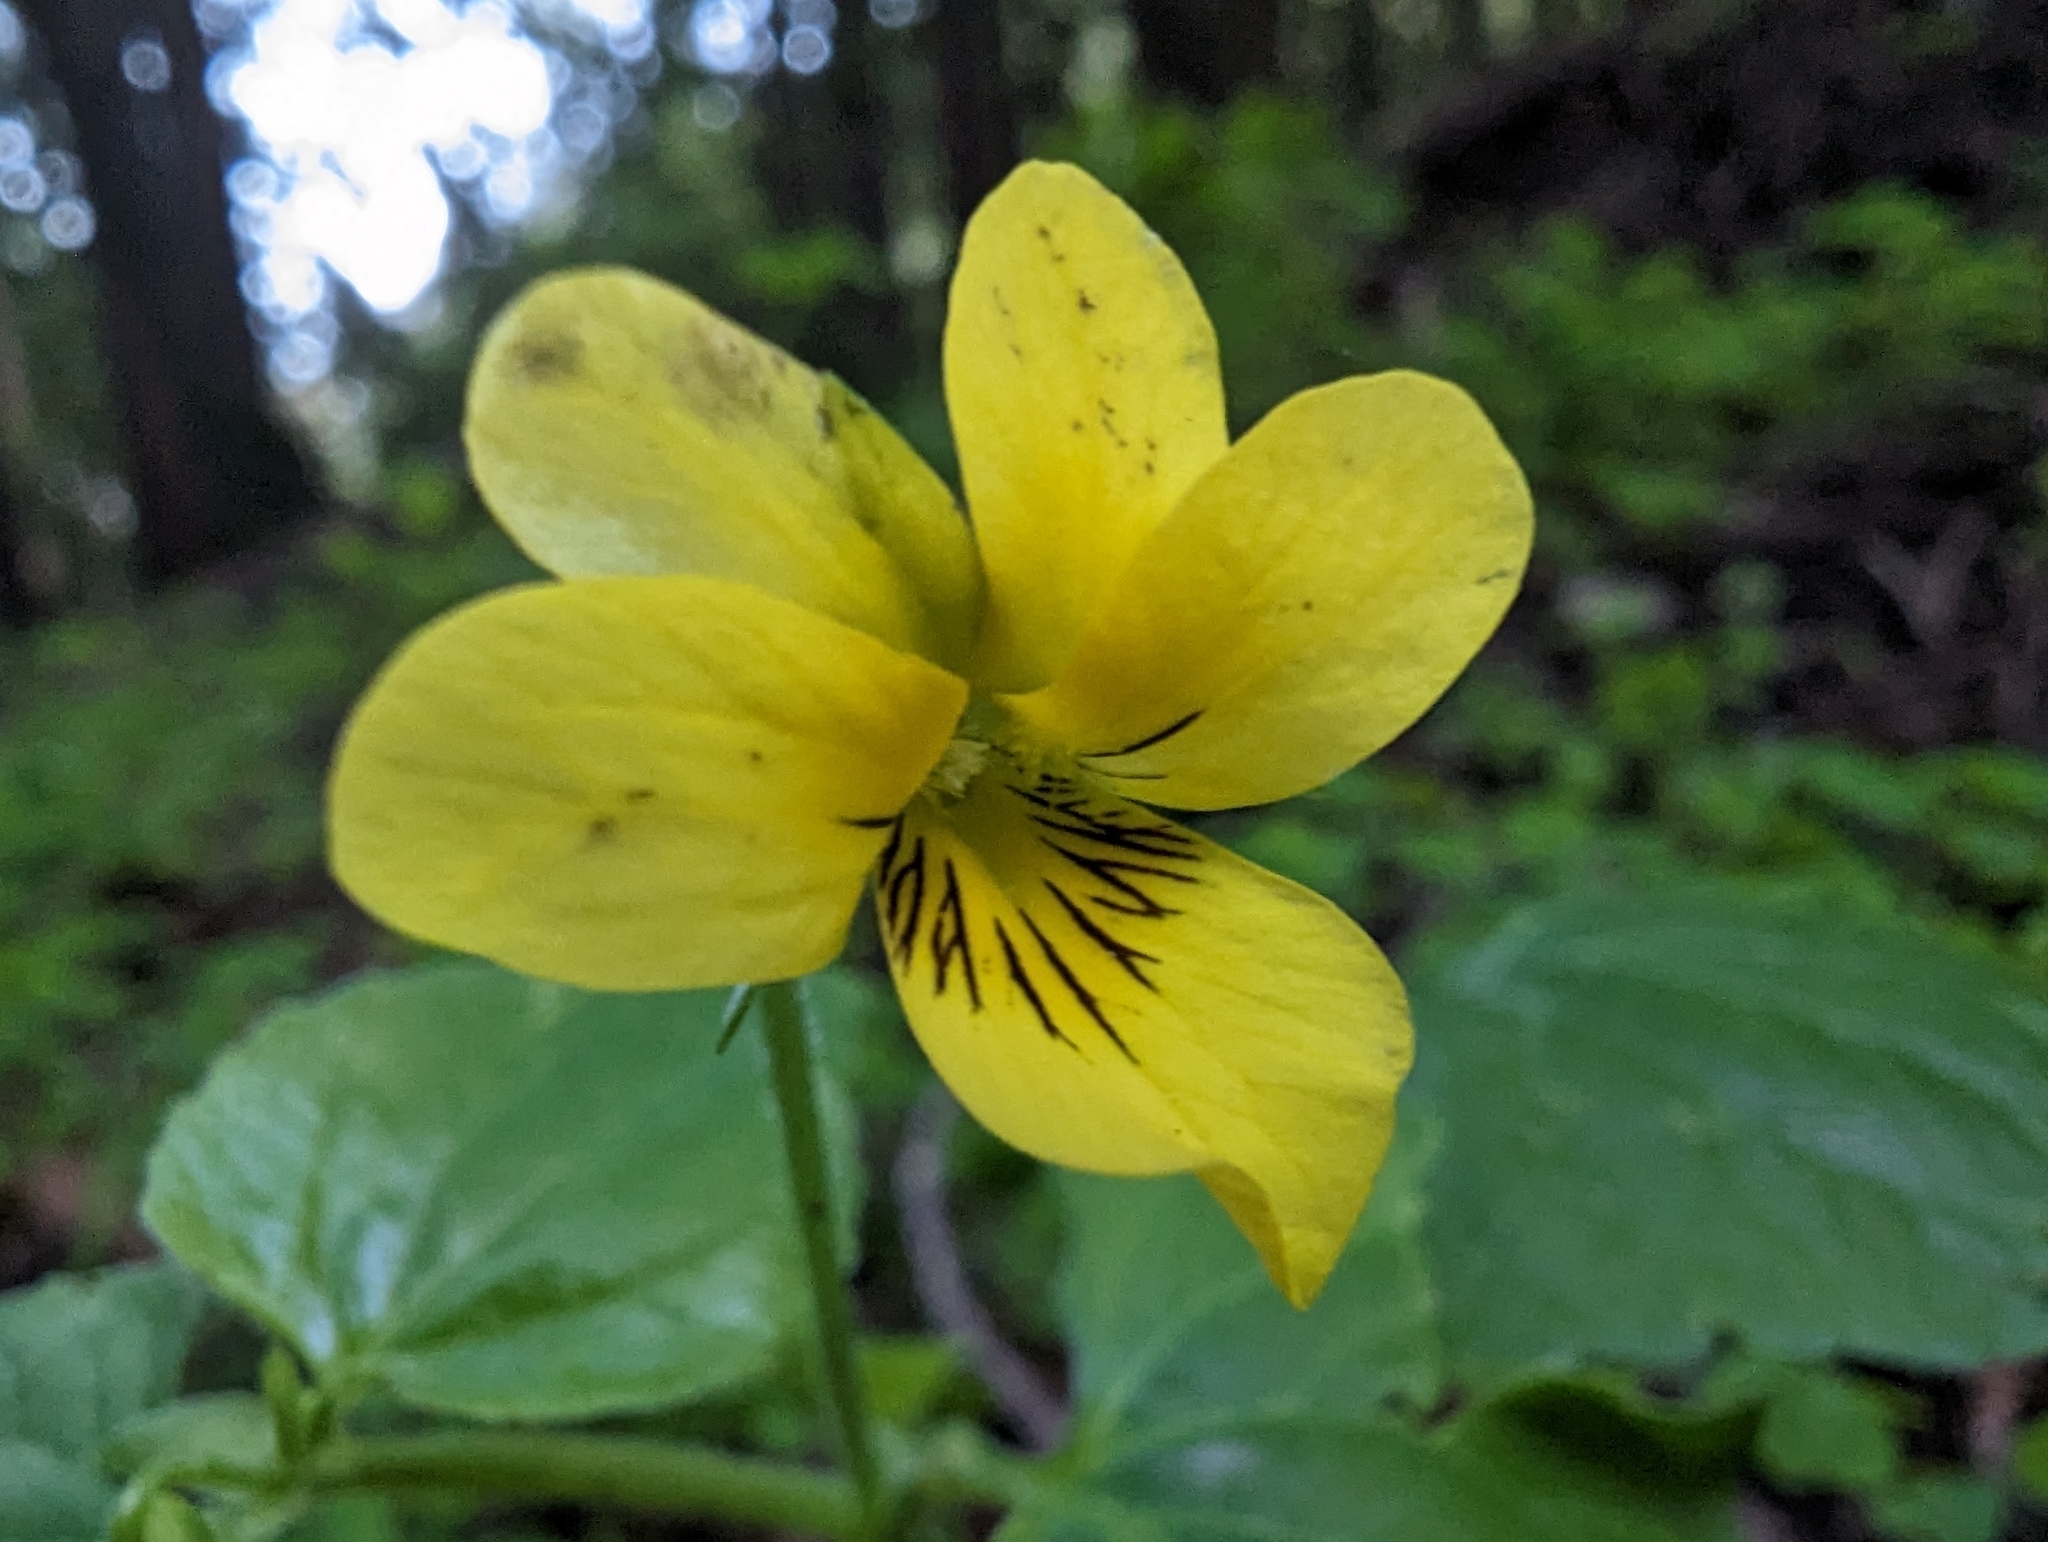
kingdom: Plantae
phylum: Tracheophyta
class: Magnoliopsida
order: Malpighiales
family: Violaceae
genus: Viola
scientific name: Viola glabella
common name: Stream violet
